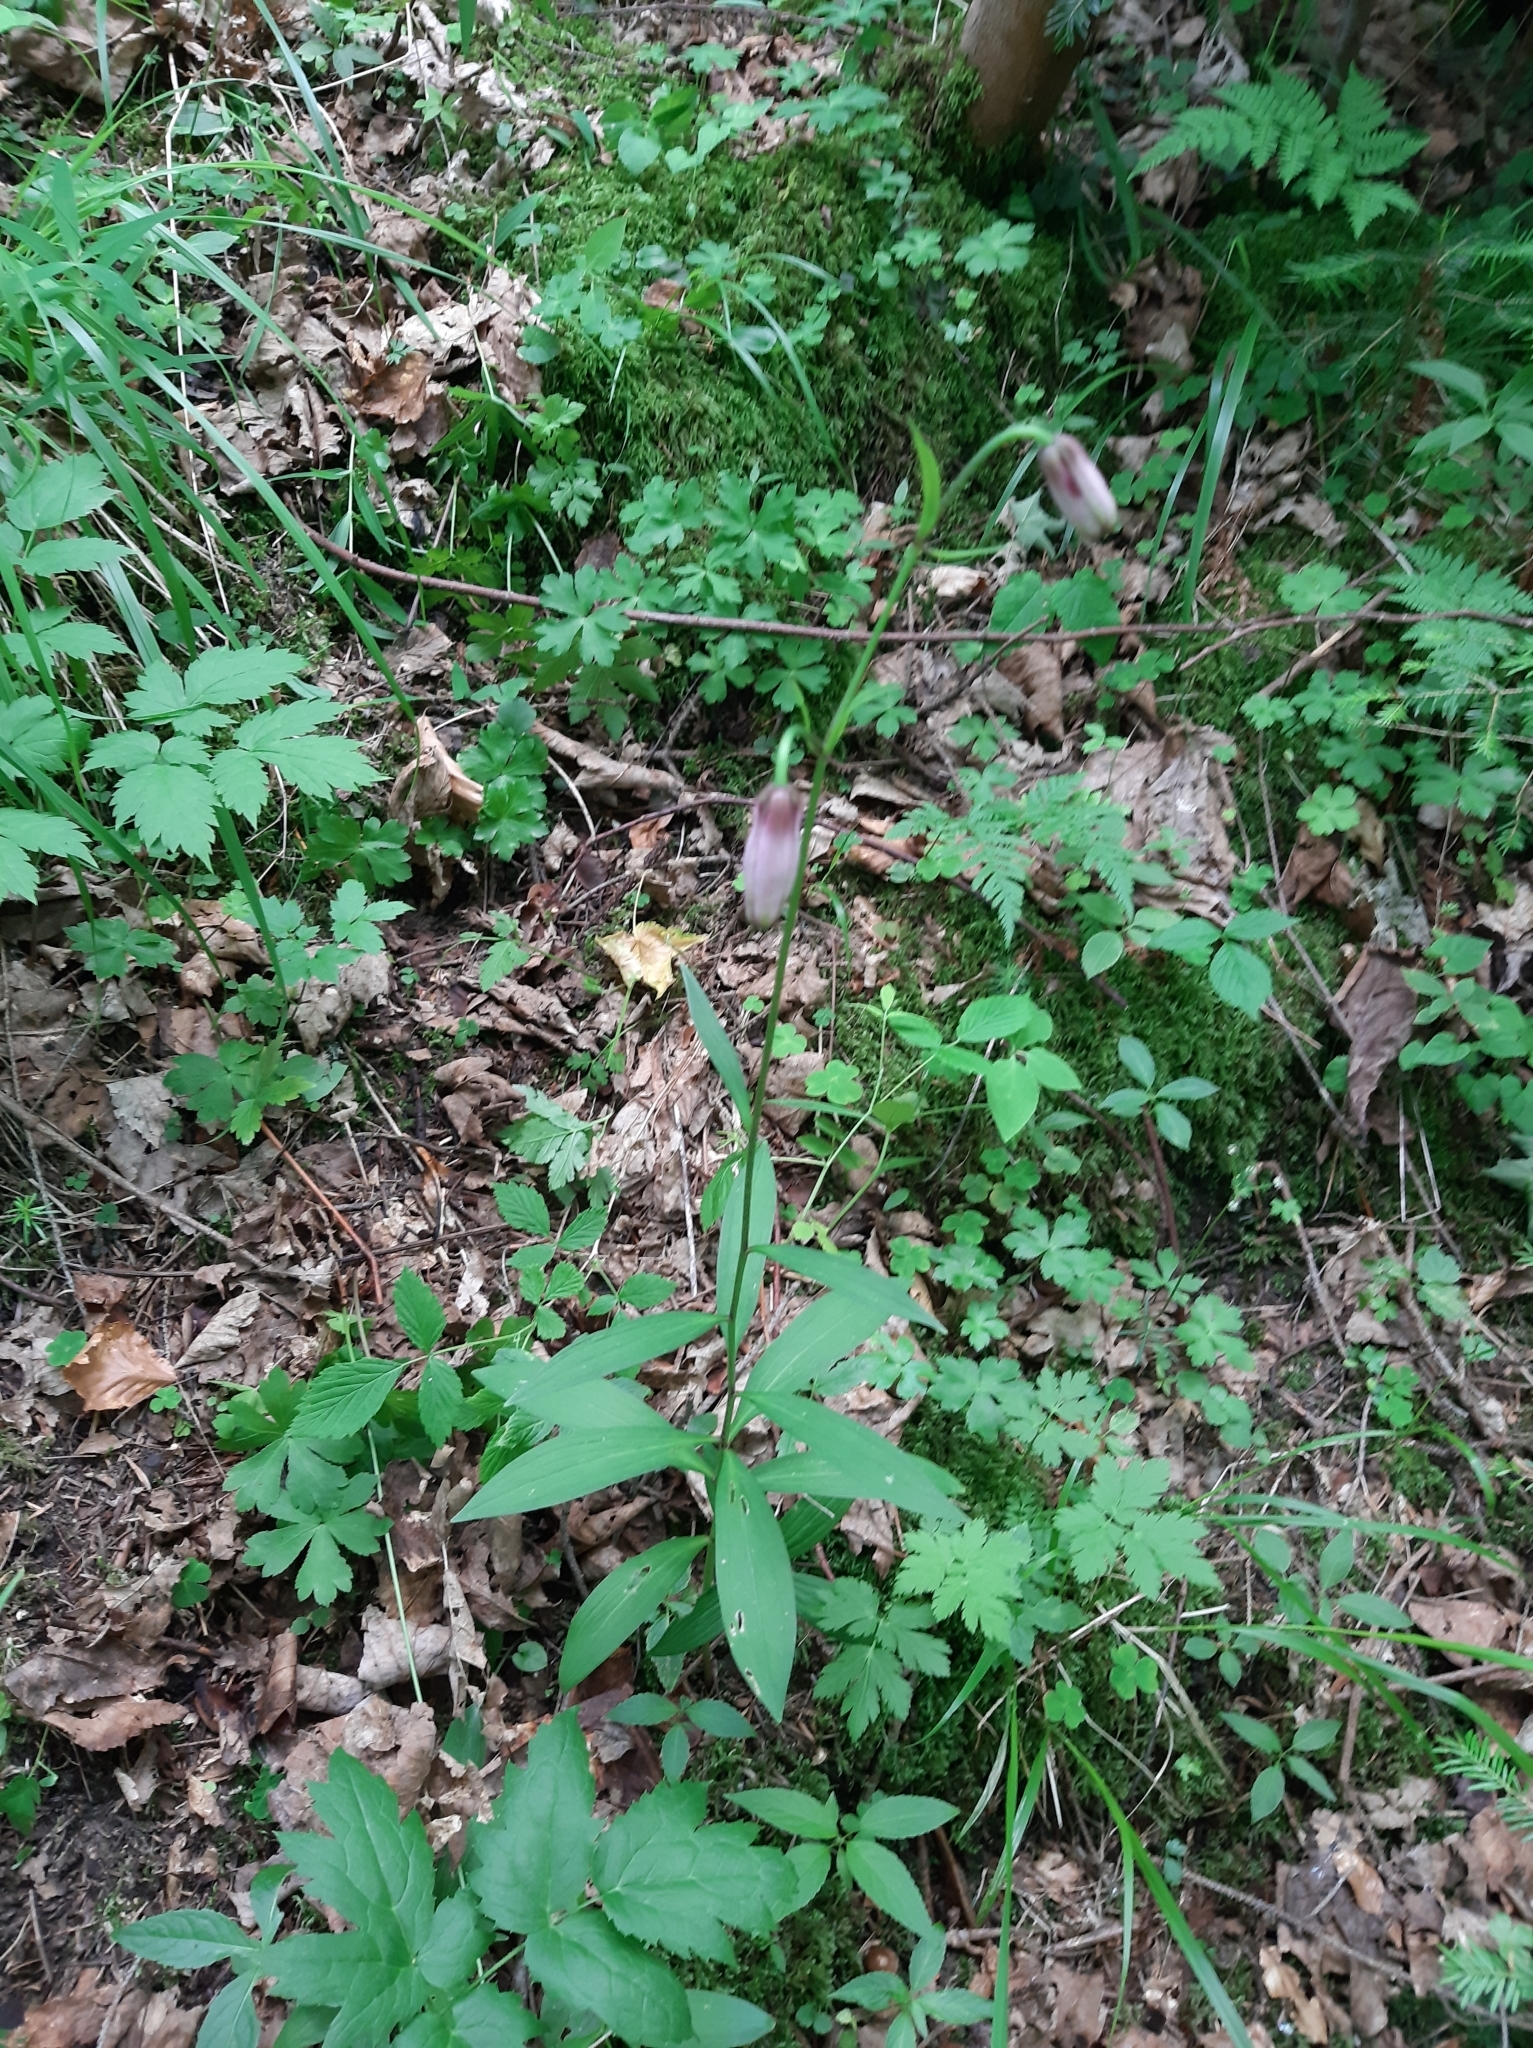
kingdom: Plantae
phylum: Tracheophyta
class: Liliopsida
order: Liliales
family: Liliaceae
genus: Lilium
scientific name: Lilium martagon
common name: Martagon lily
